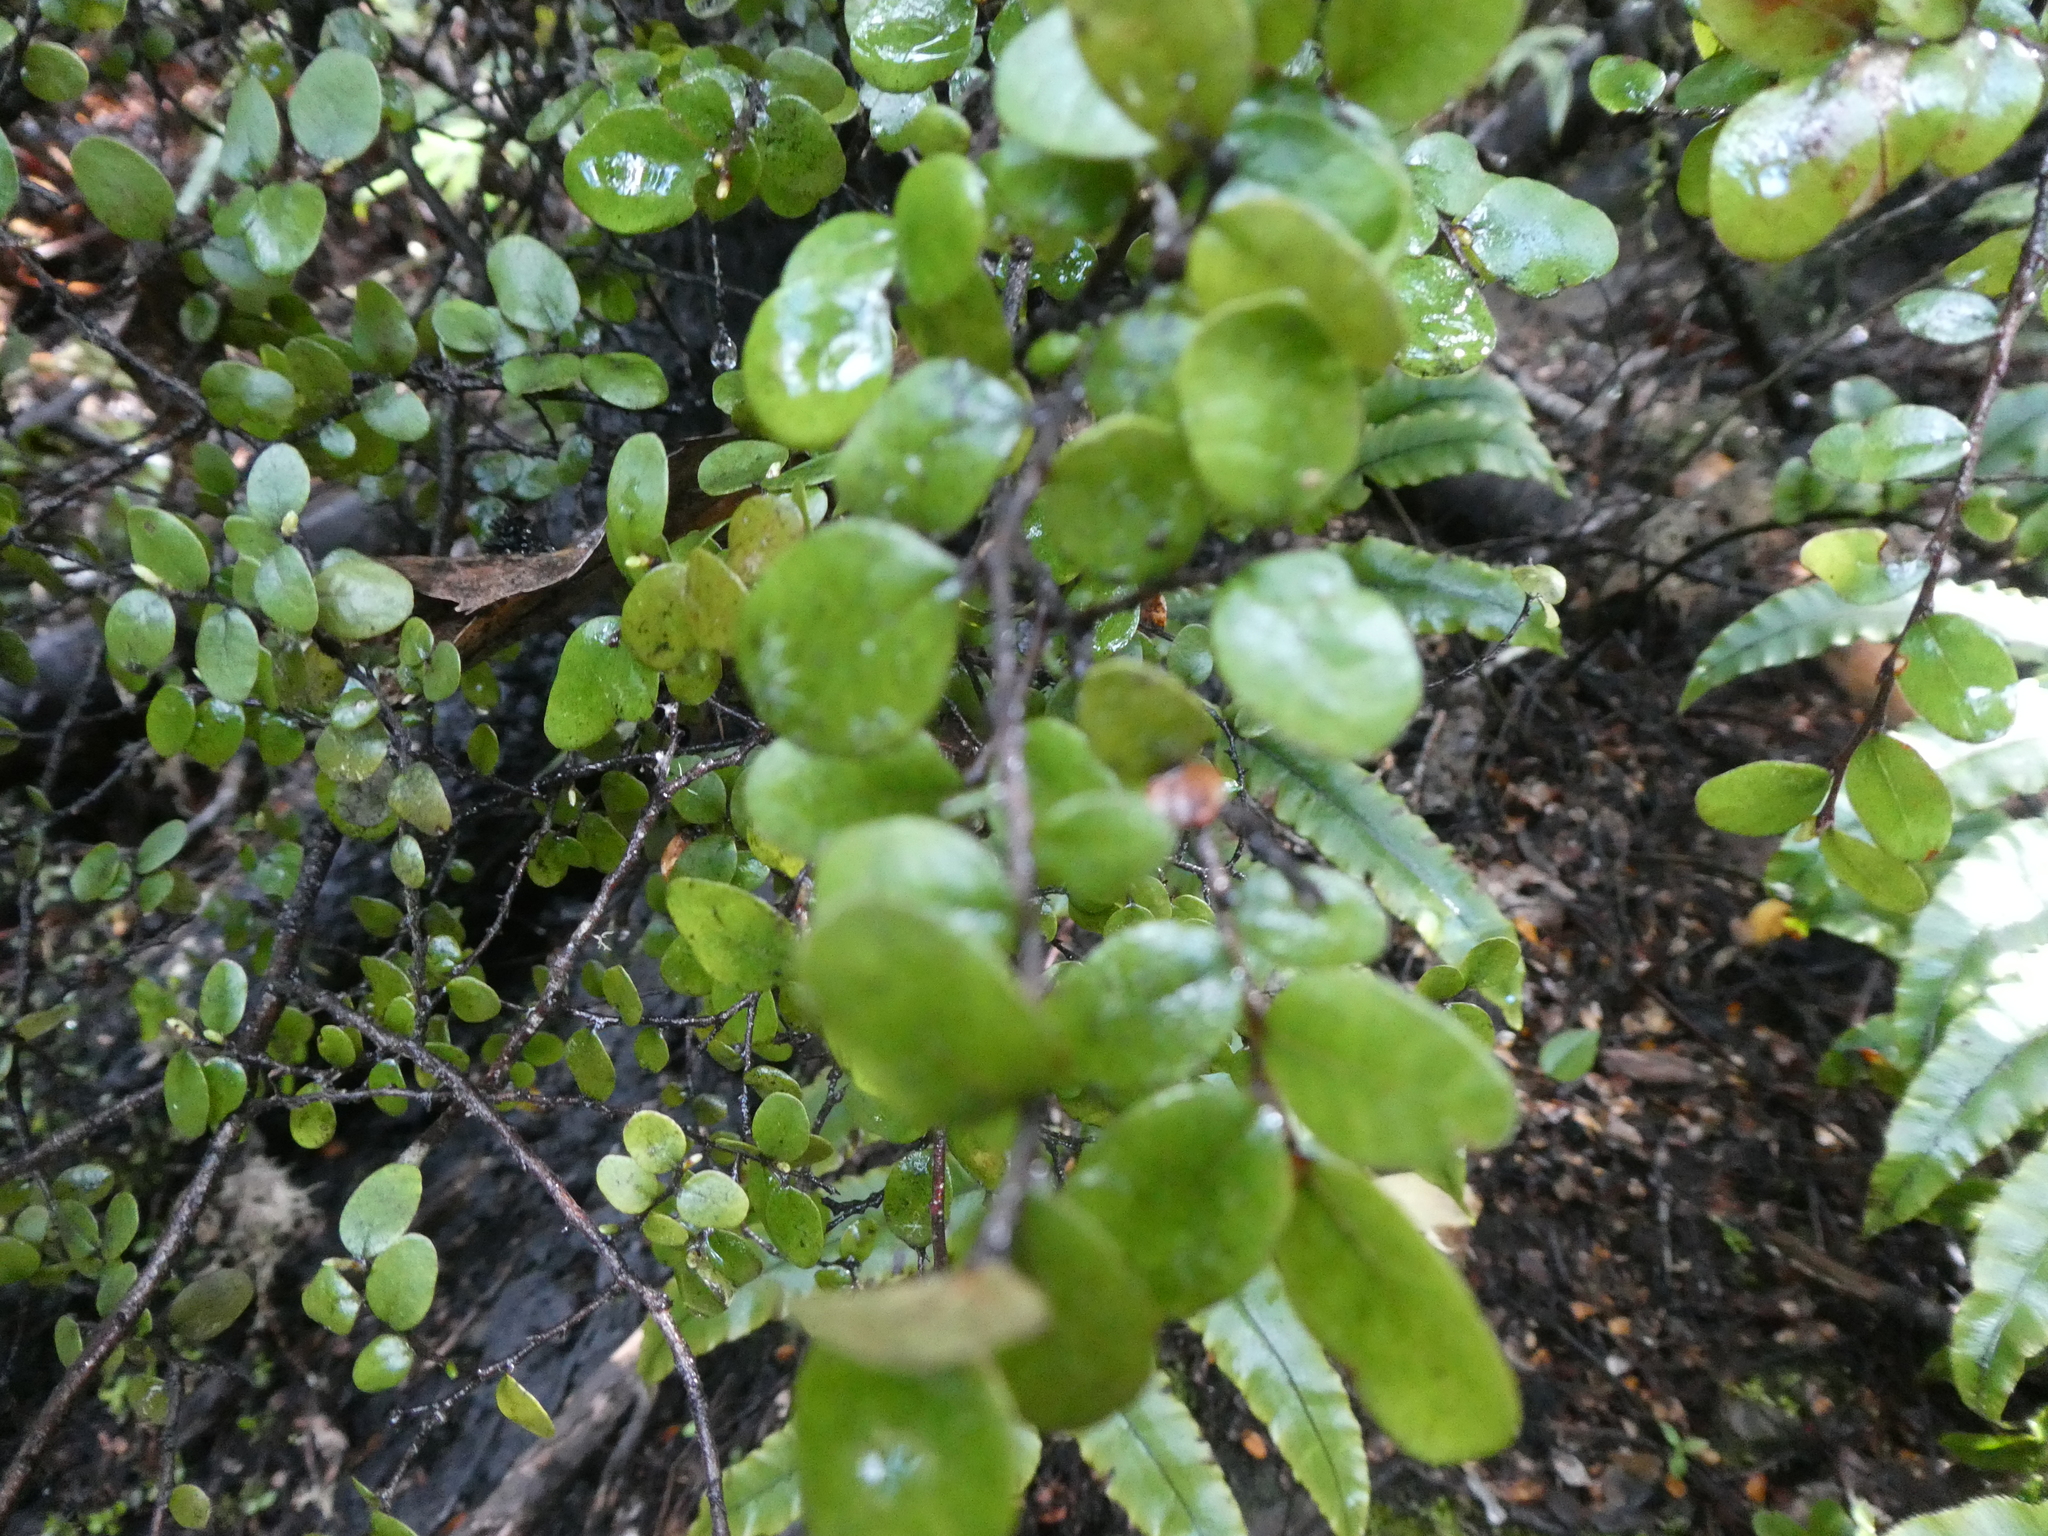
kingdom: Plantae
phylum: Tracheophyta
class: Magnoliopsida
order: Fagales
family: Nothofagaceae
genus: Nothofagus
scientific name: Nothofagus solfusca
